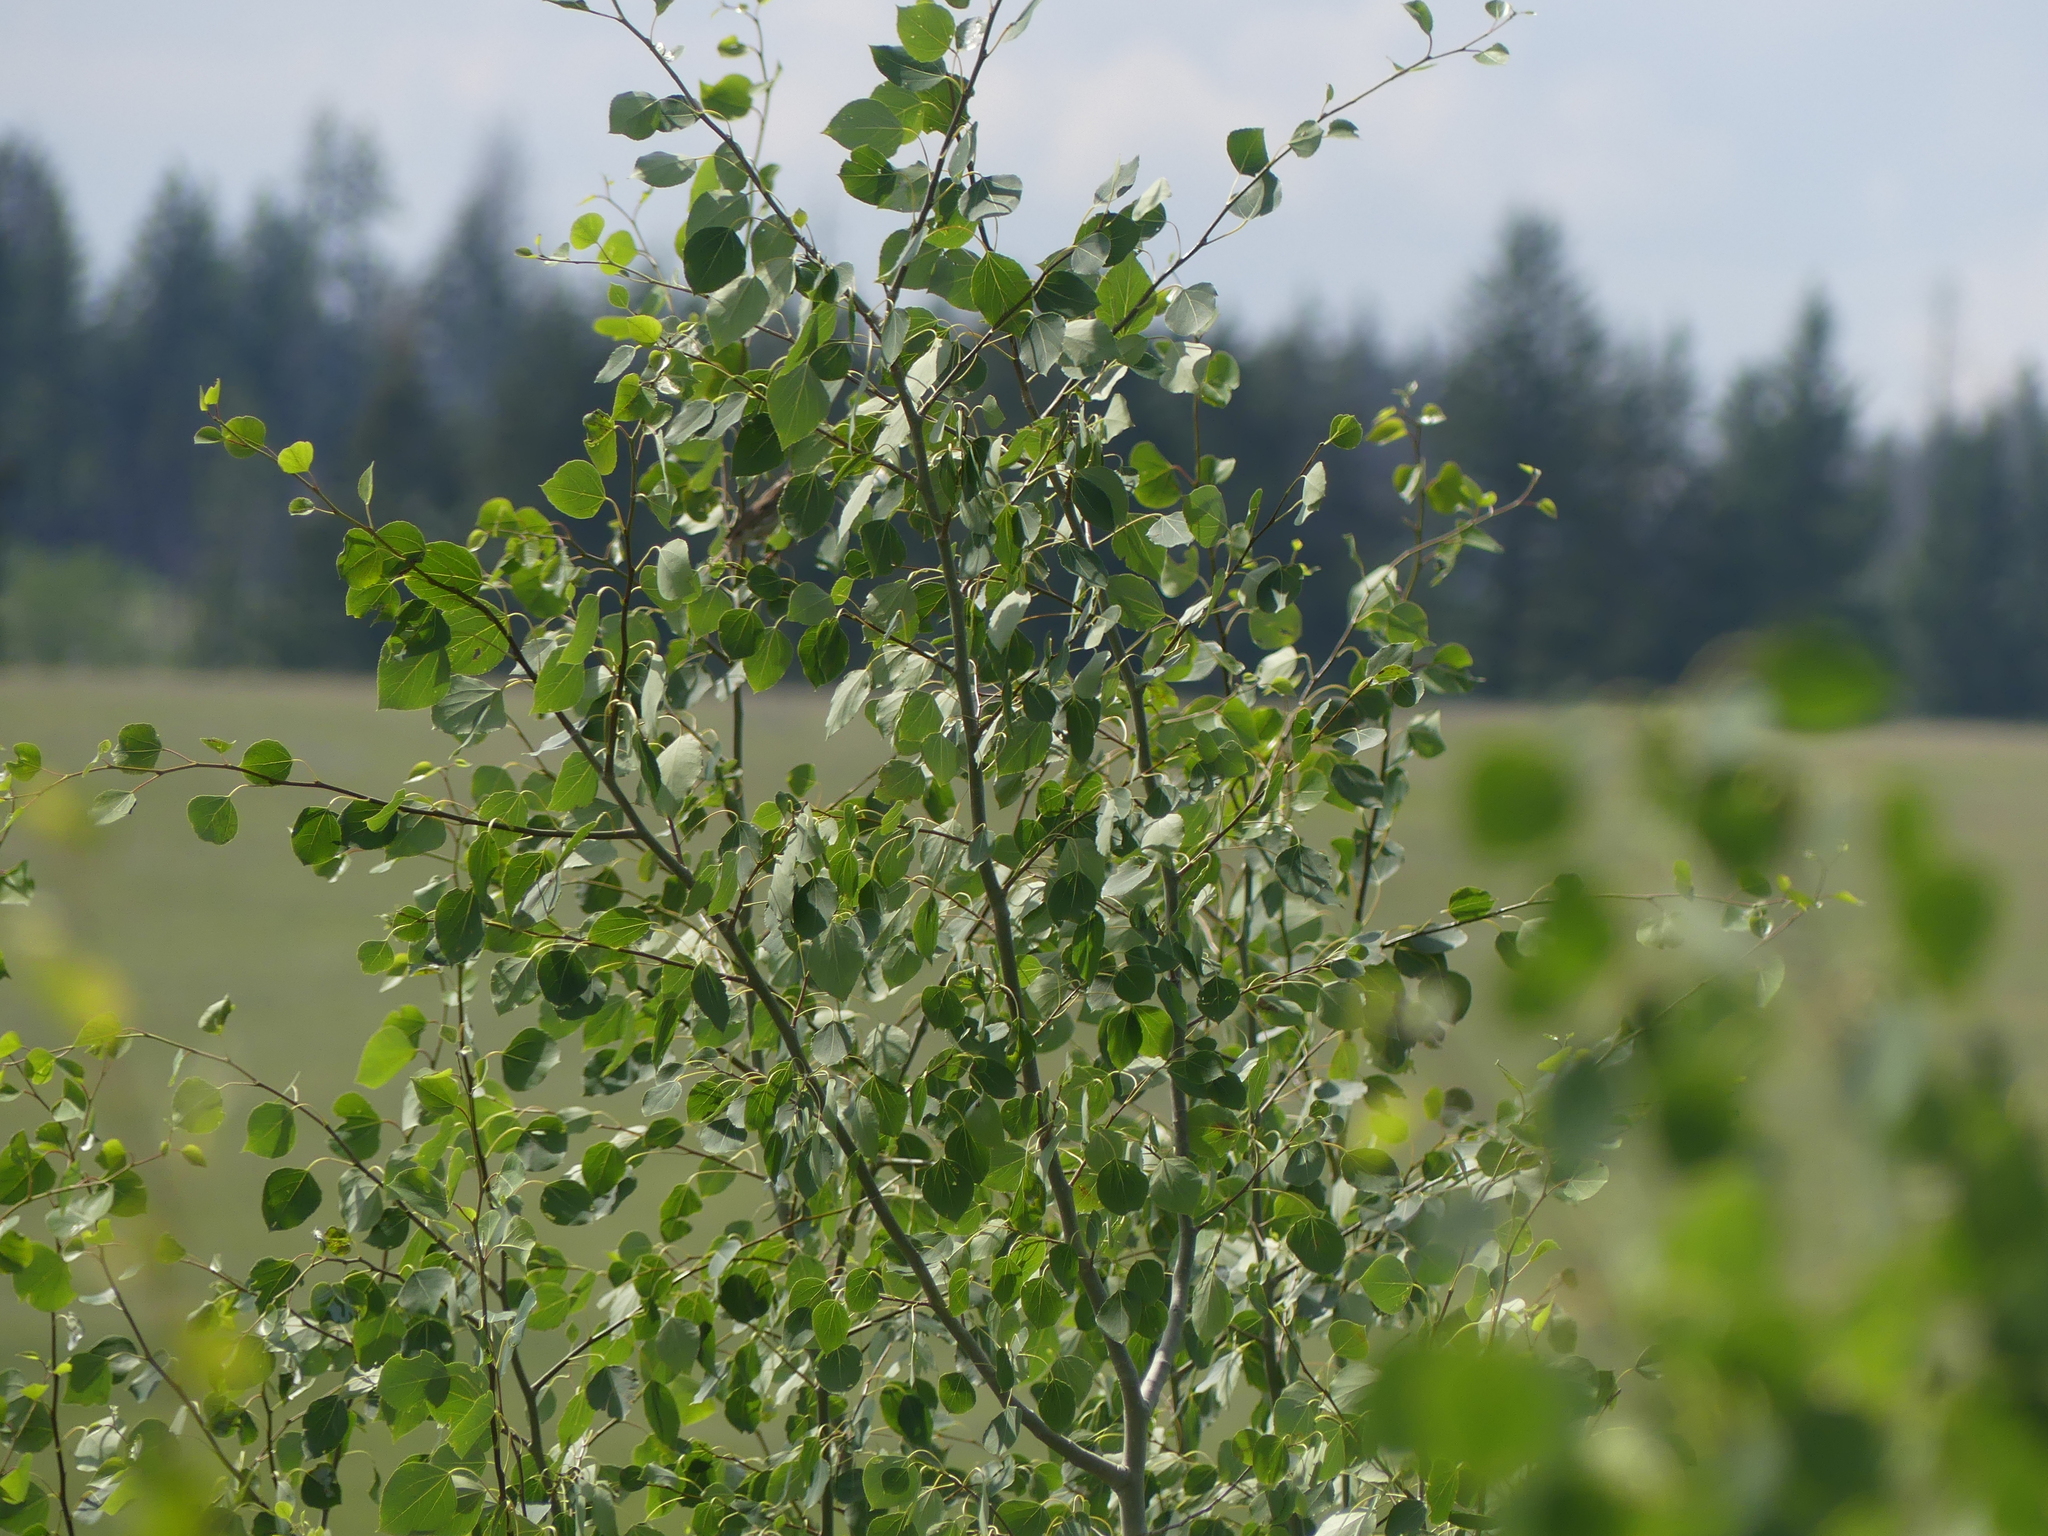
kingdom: Plantae
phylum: Tracheophyta
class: Magnoliopsida
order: Malpighiales
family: Salicaceae
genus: Populus
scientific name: Populus tremuloides
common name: Quaking aspen
